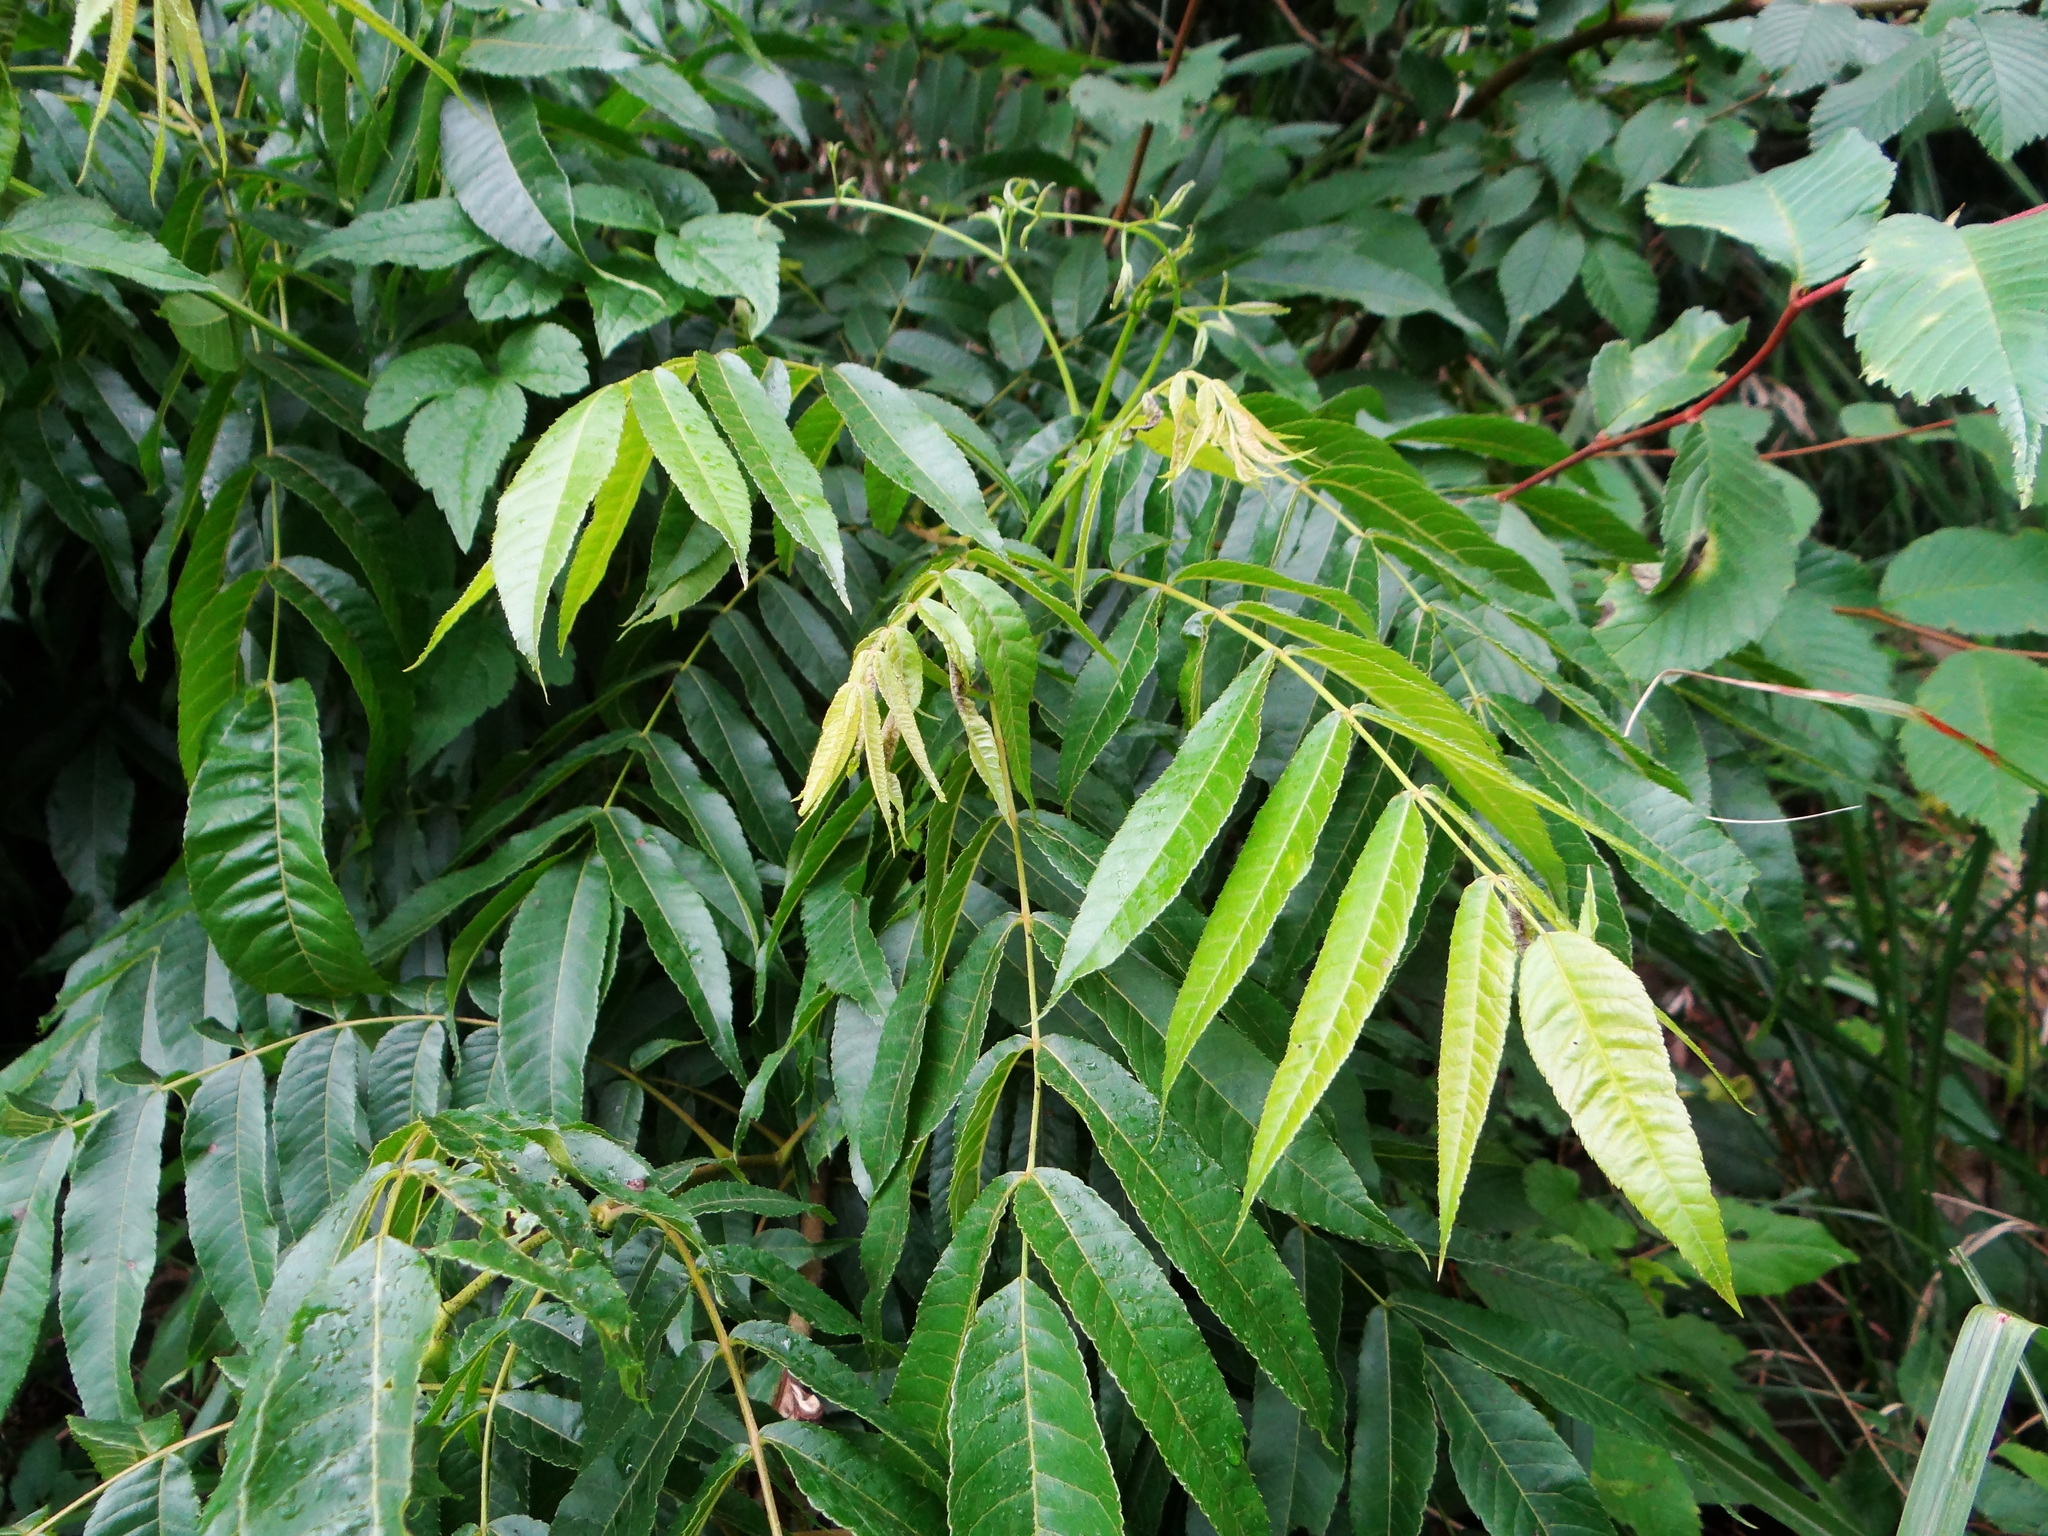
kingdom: Plantae
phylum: Tracheophyta
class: Magnoliopsida
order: Fagales
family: Juglandaceae
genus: Platycarya
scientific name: Platycarya strobilacea
